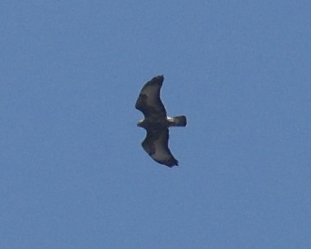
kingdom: Animalia
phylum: Chordata
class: Aves
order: Accipitriformes
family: Accipitridae
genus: Buteo
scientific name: Buteo buteo
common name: Common buzzard
